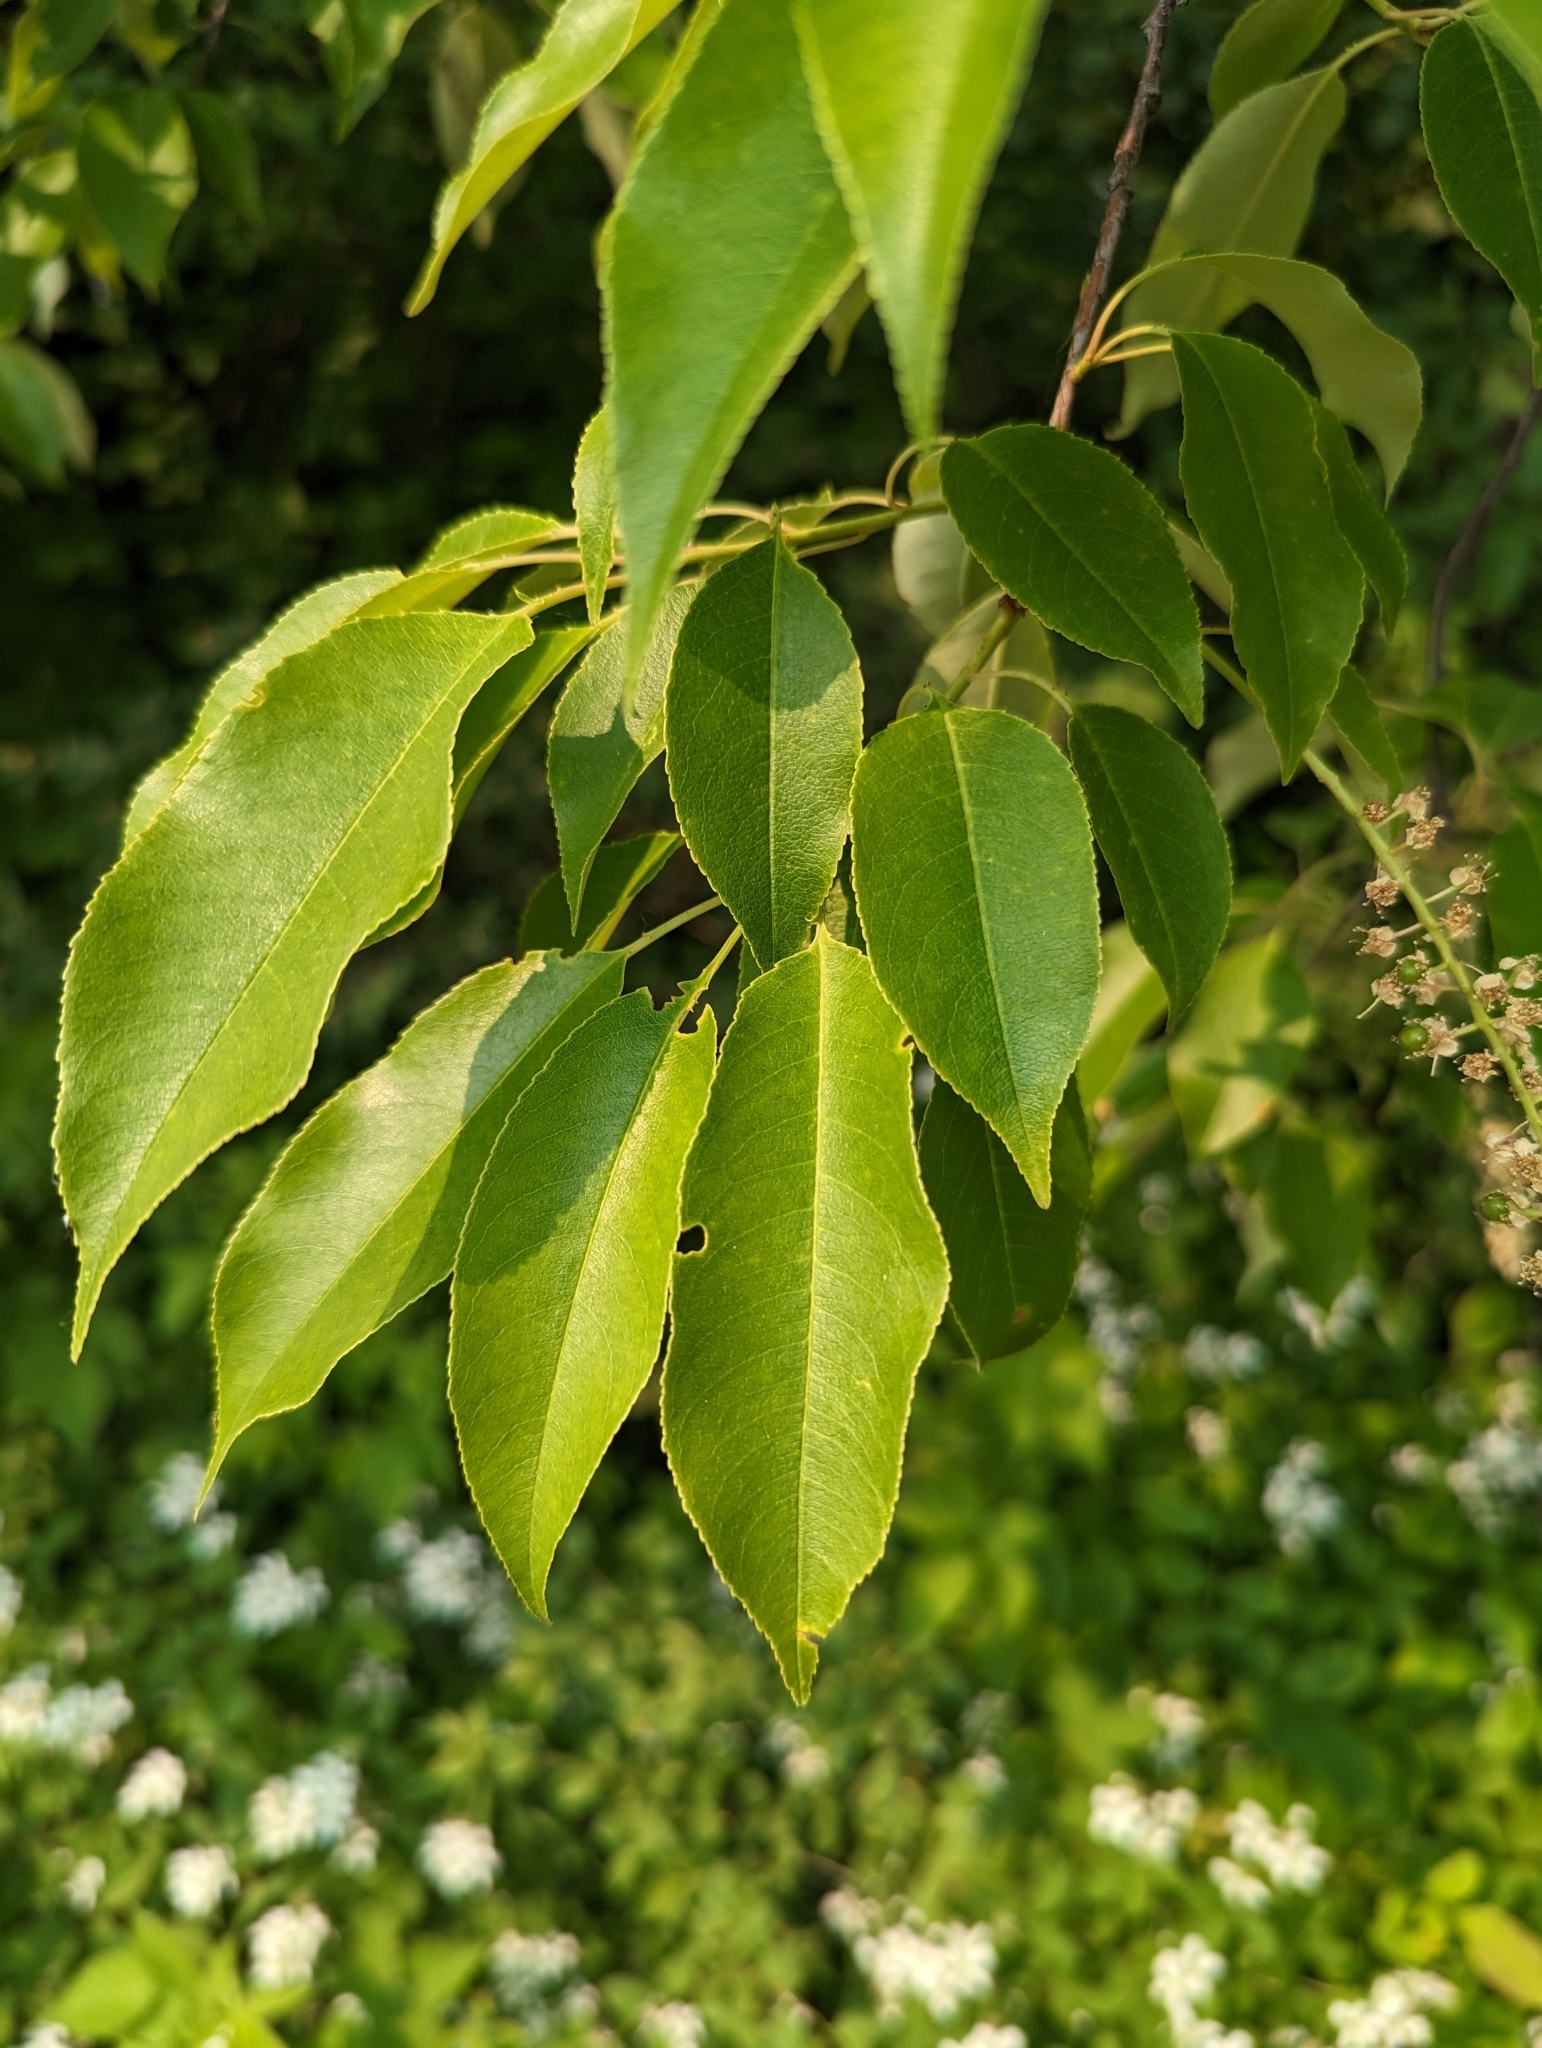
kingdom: Plantae
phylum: Tracheophyta
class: Magnoliopsida
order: Rosales
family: Rosaceae
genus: Prunus
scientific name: Prunus serotina
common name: Black cherry
